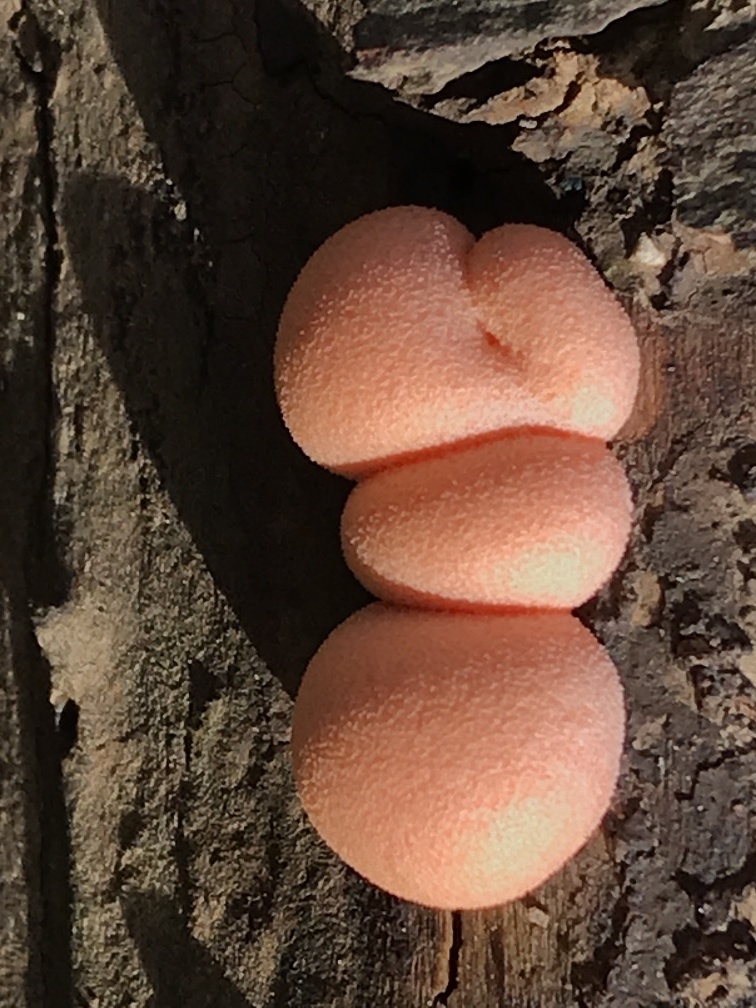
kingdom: Protozoa
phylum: Mycetozoa
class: Myxomycetes
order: Cribrariales
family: Tubiferaceae
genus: Lycogala
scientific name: Lycogala epidendrum
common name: Wolf's milk
